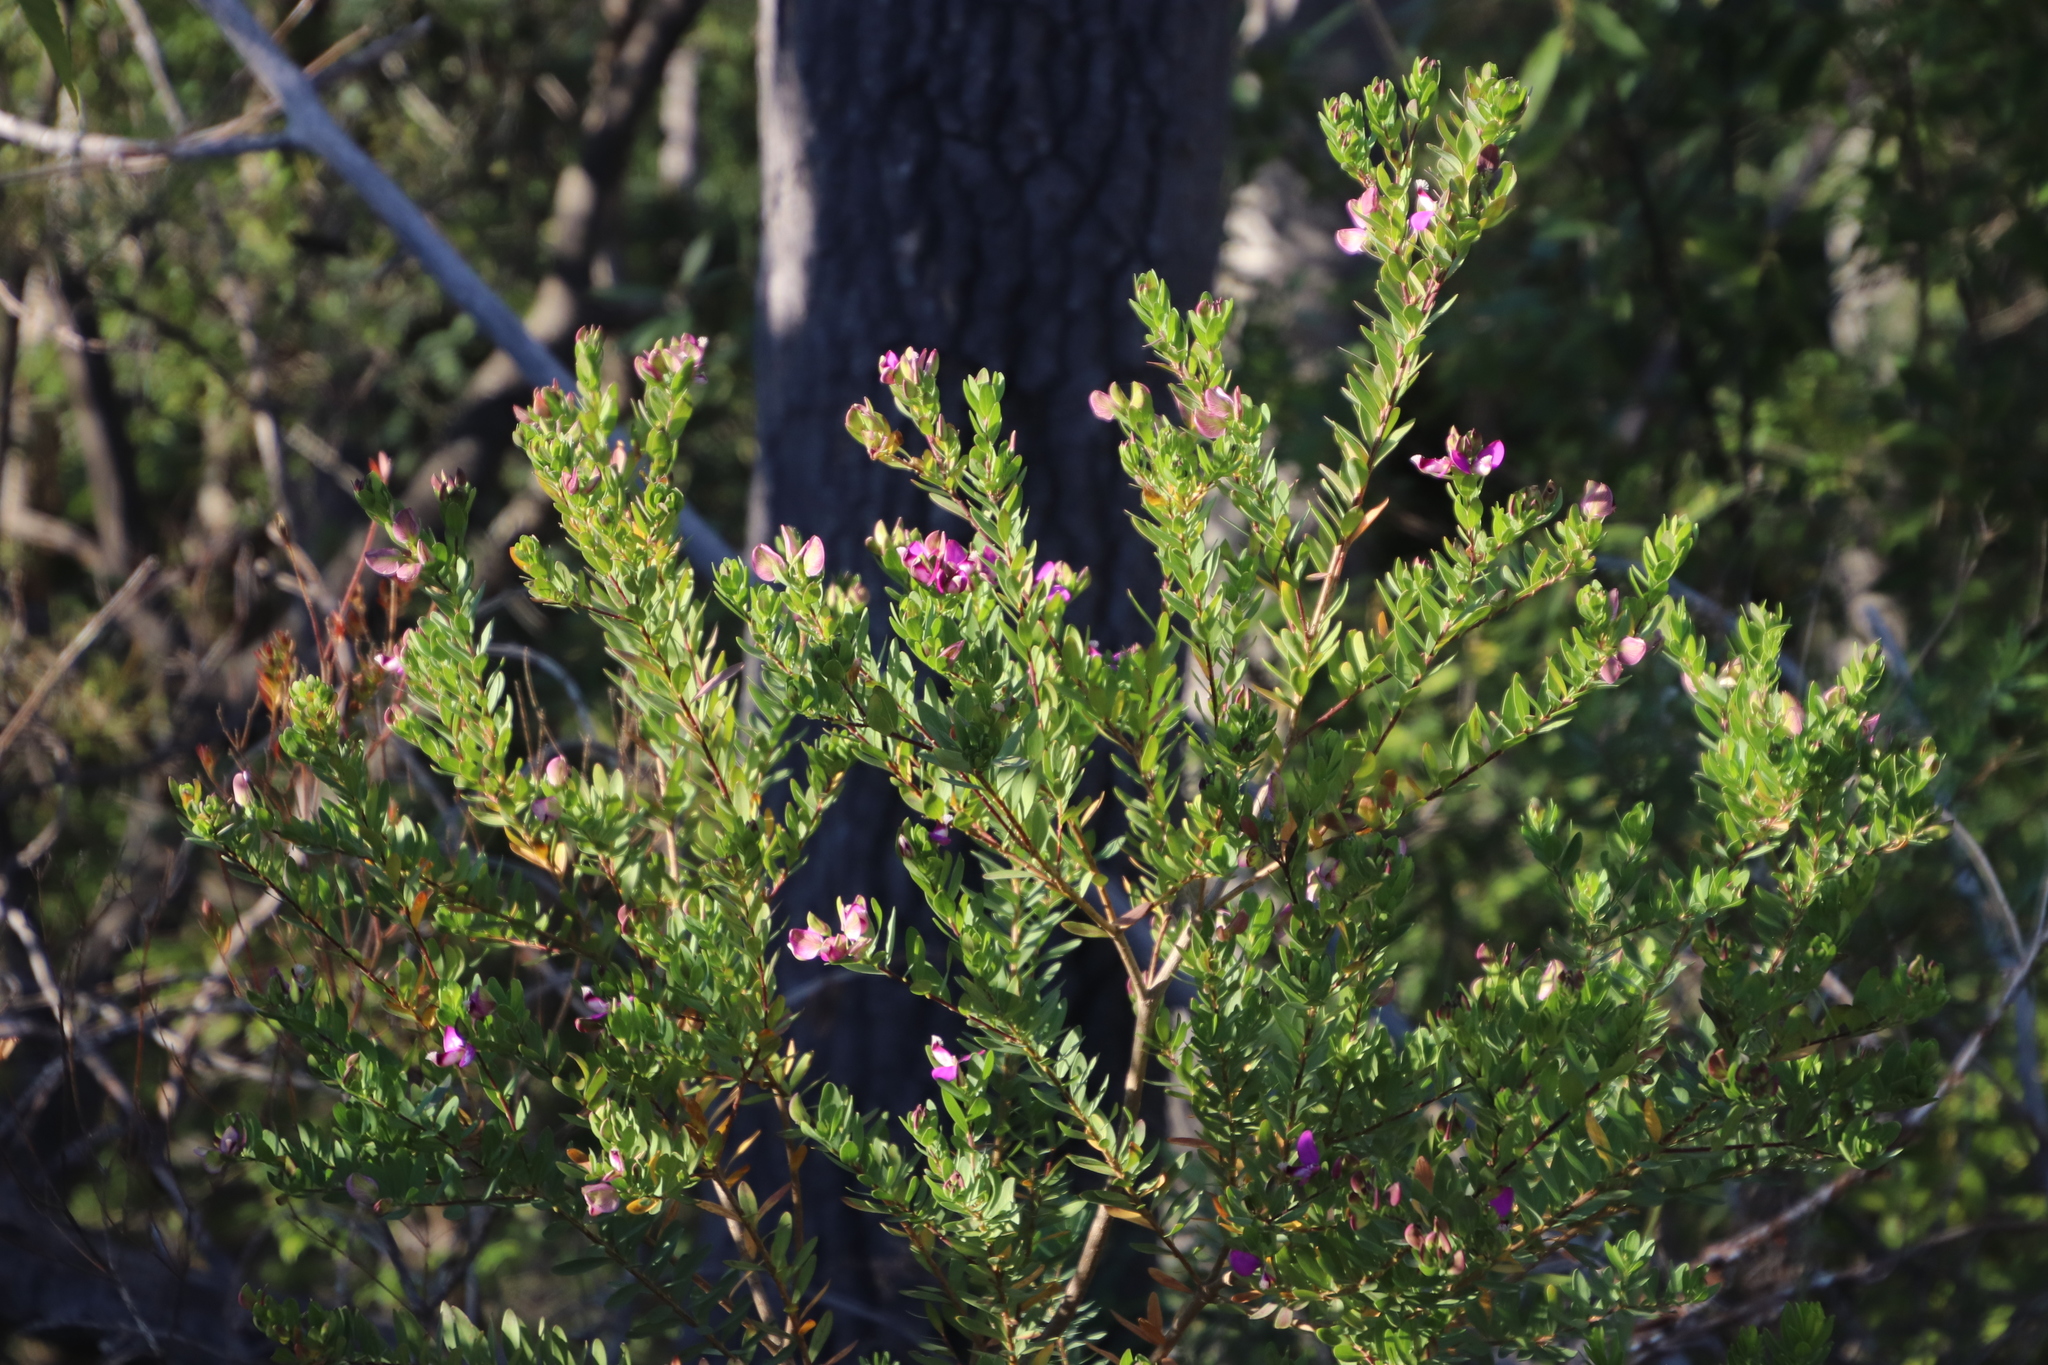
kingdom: Plantae
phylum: Tracheophyta
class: Magnoliopsida
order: Fabales
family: Polygalaceae
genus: Polygala
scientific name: Polygala myrtifolia
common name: Myrtle-leaf milkwort
